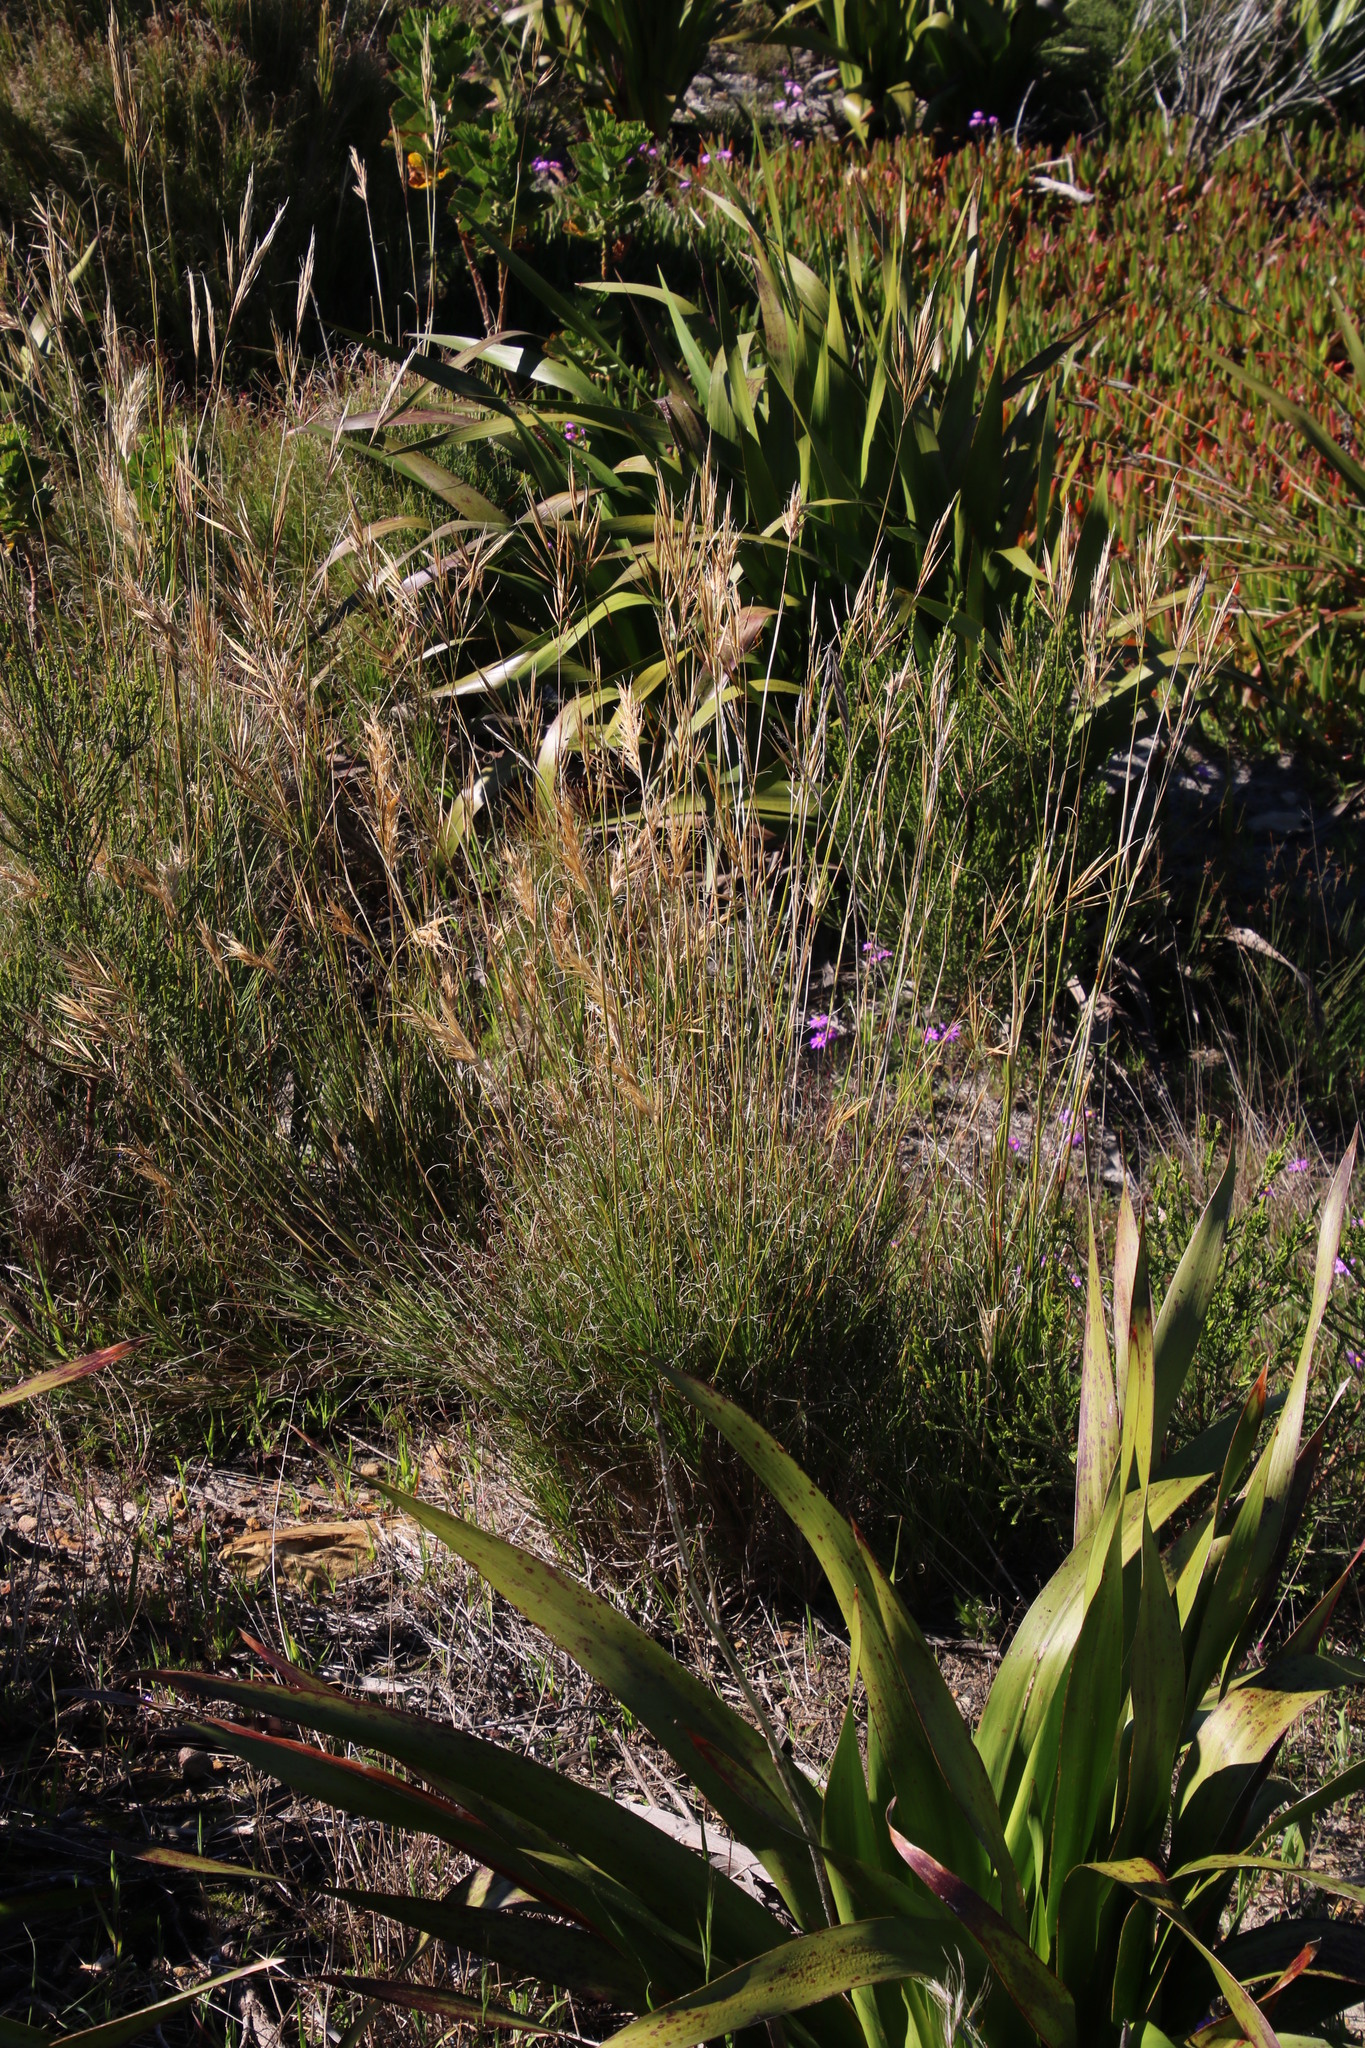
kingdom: Plantae
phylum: Tracheophyta
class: Liliopsida
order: Poales
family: Poaceae
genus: Pseudopentameris
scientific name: Pseudopentameris macrantha
